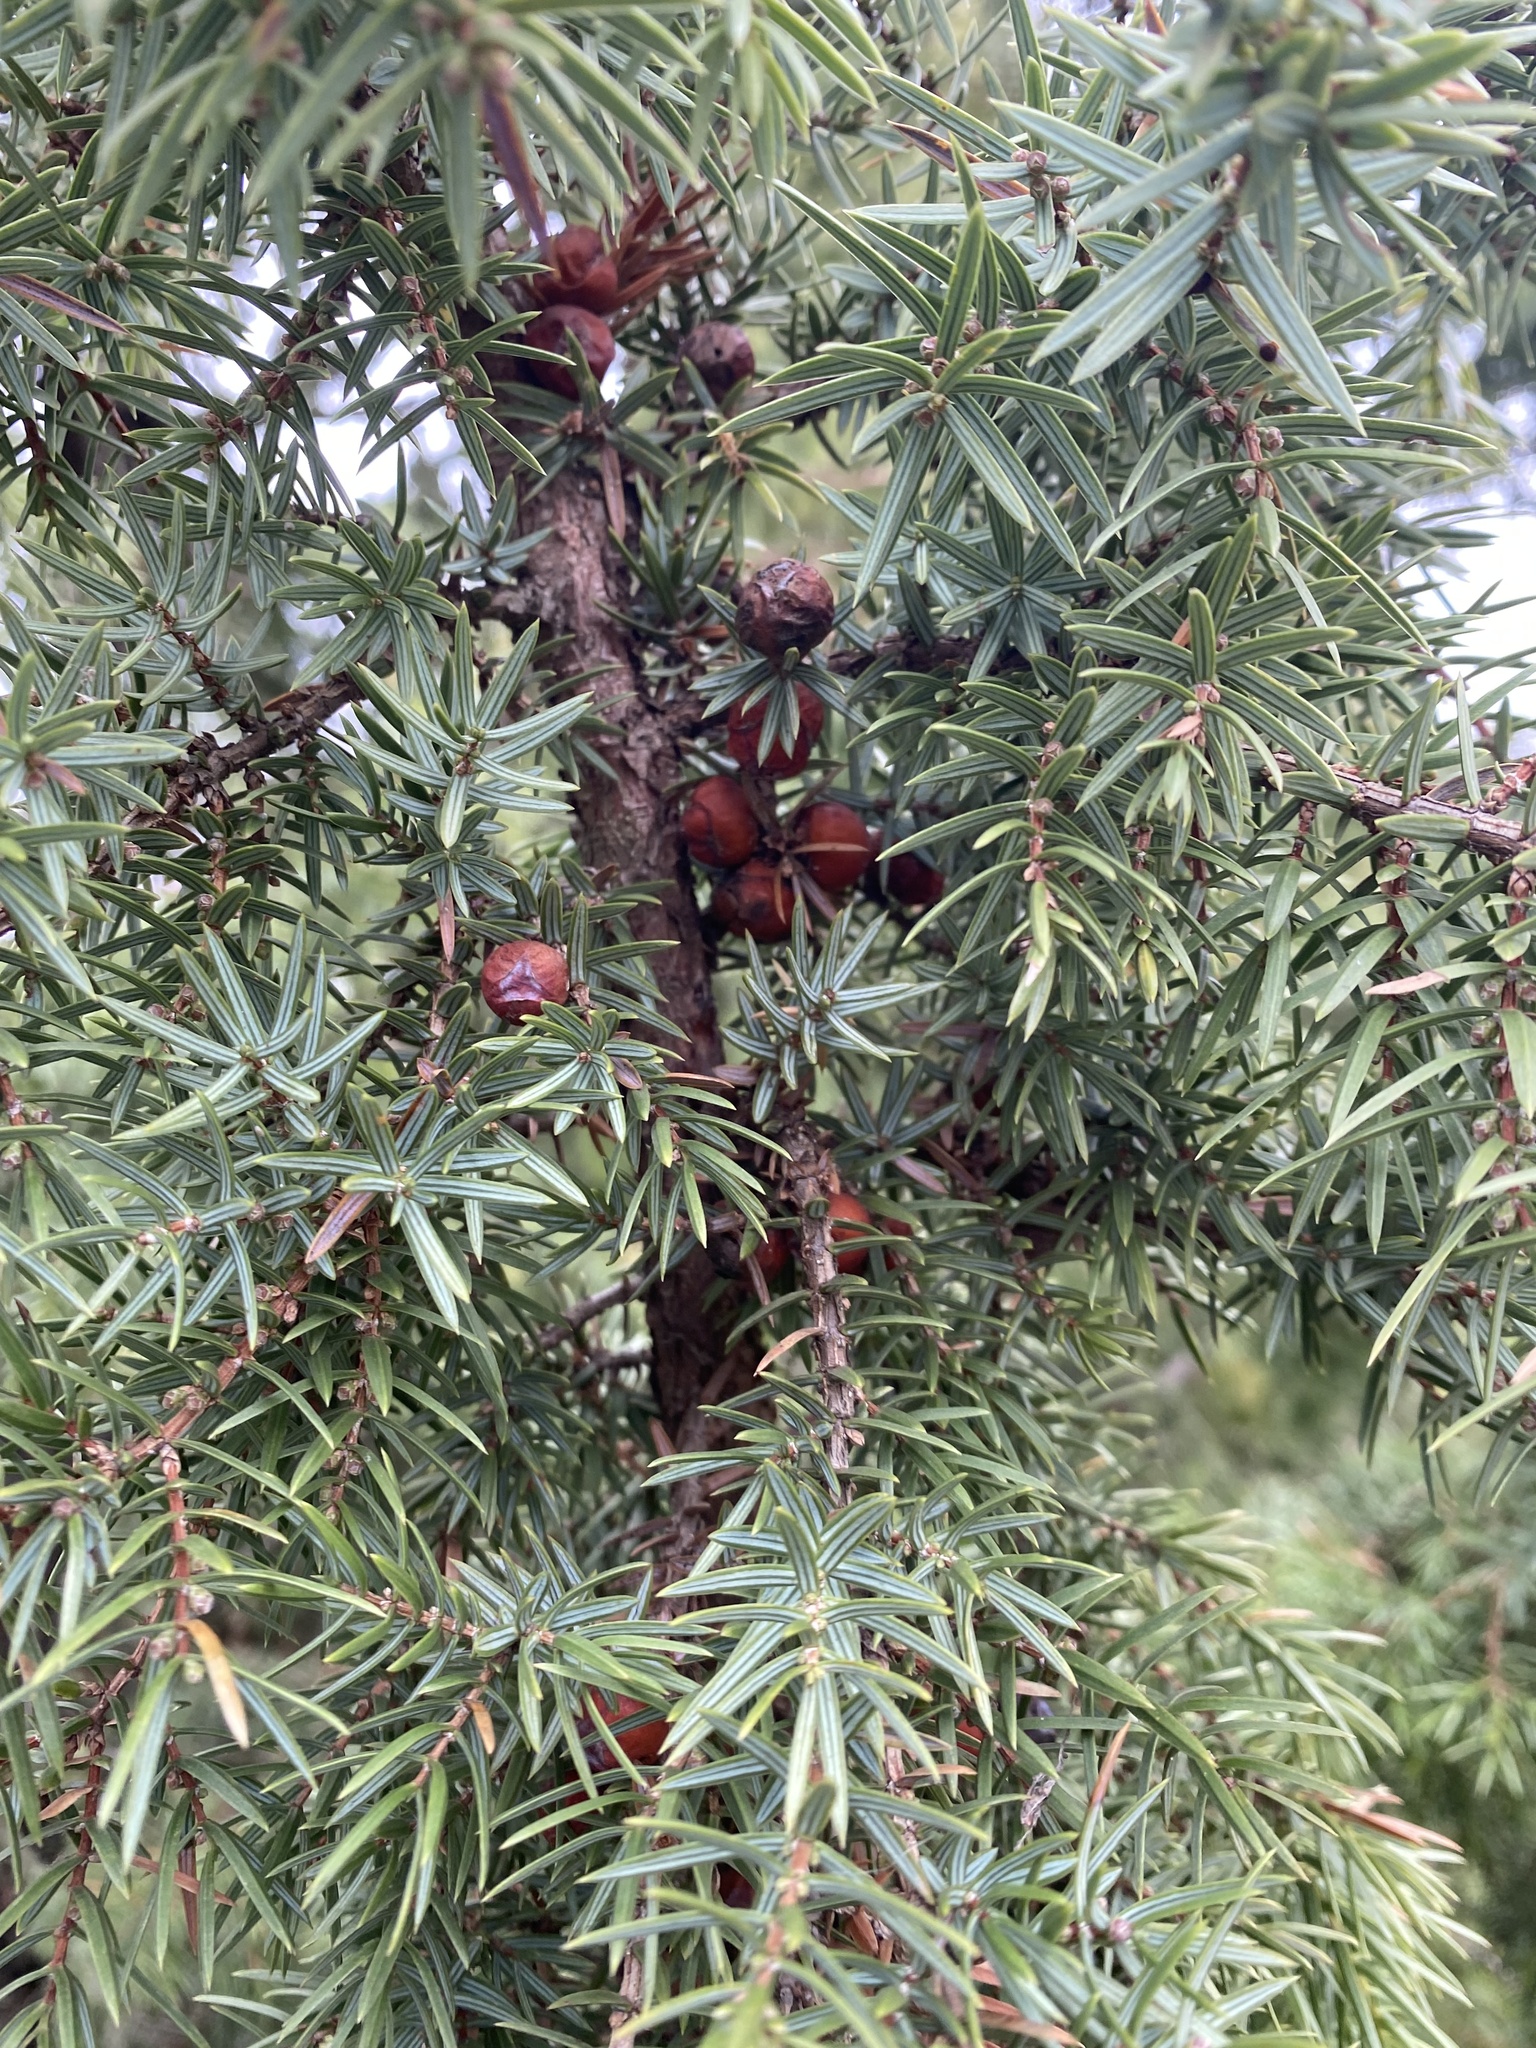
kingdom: Plantae
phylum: Tracheophyta
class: Pinopsida
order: Pinales
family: Cupressaceae
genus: Juniperus
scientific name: Juniperus oxycedrus
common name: Prickly juniper
